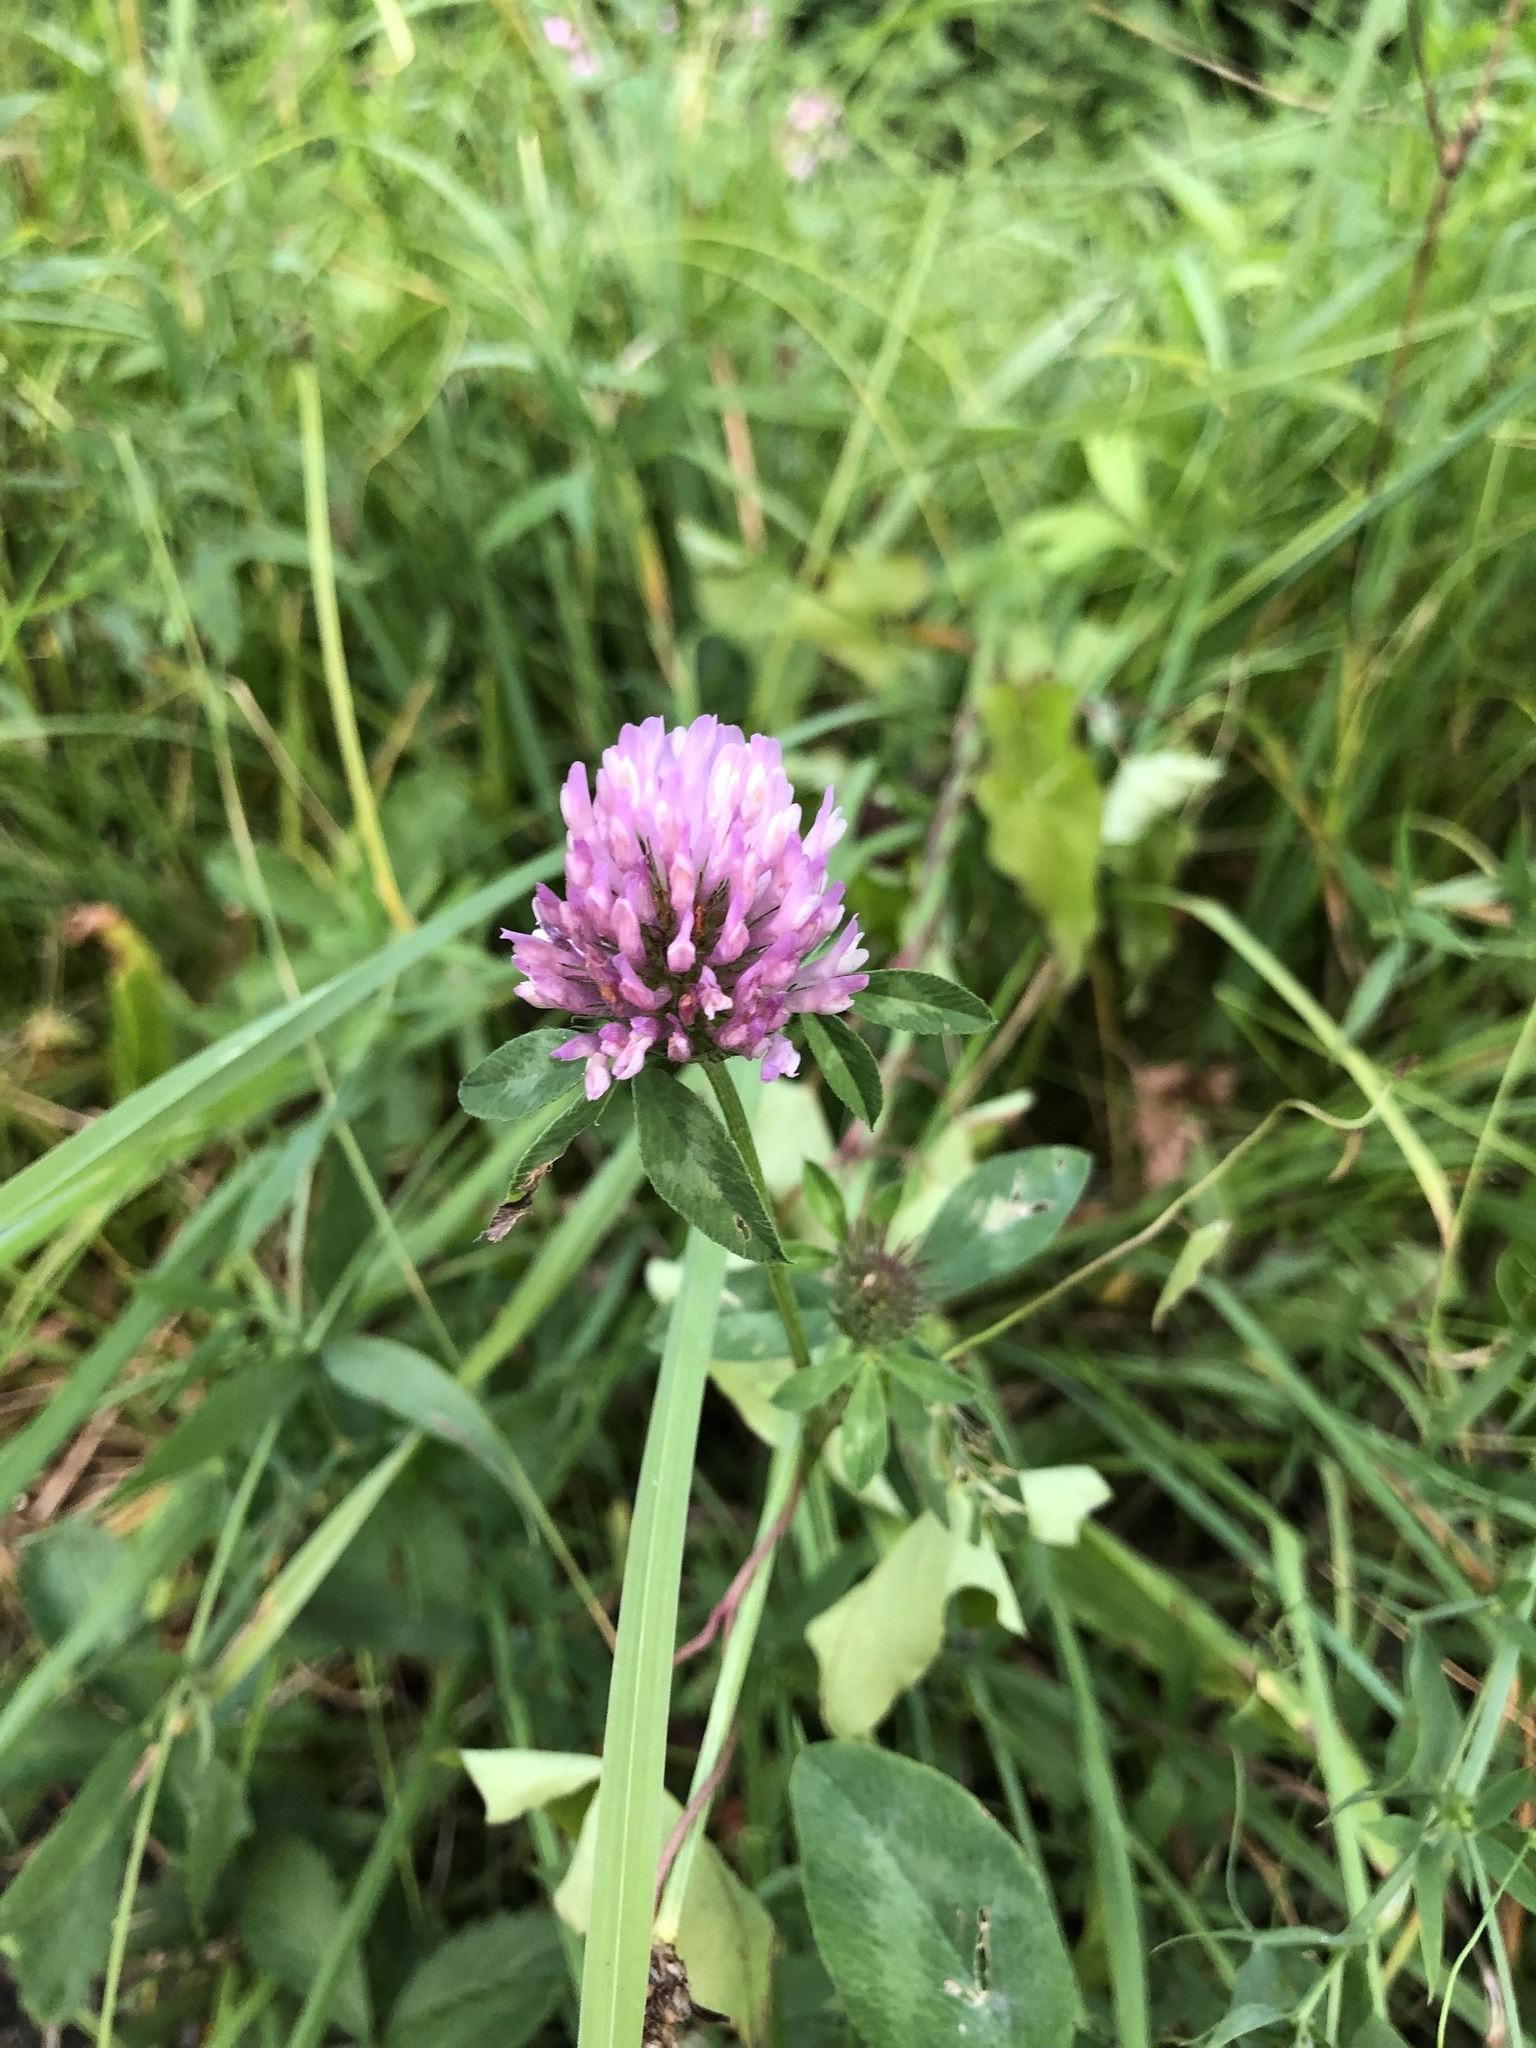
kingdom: Plantae
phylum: Tracheophyta
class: Magnoliopsida
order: Fabales
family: Fabaceae
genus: Trifolium
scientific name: Trifolium pratense
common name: Red clover
